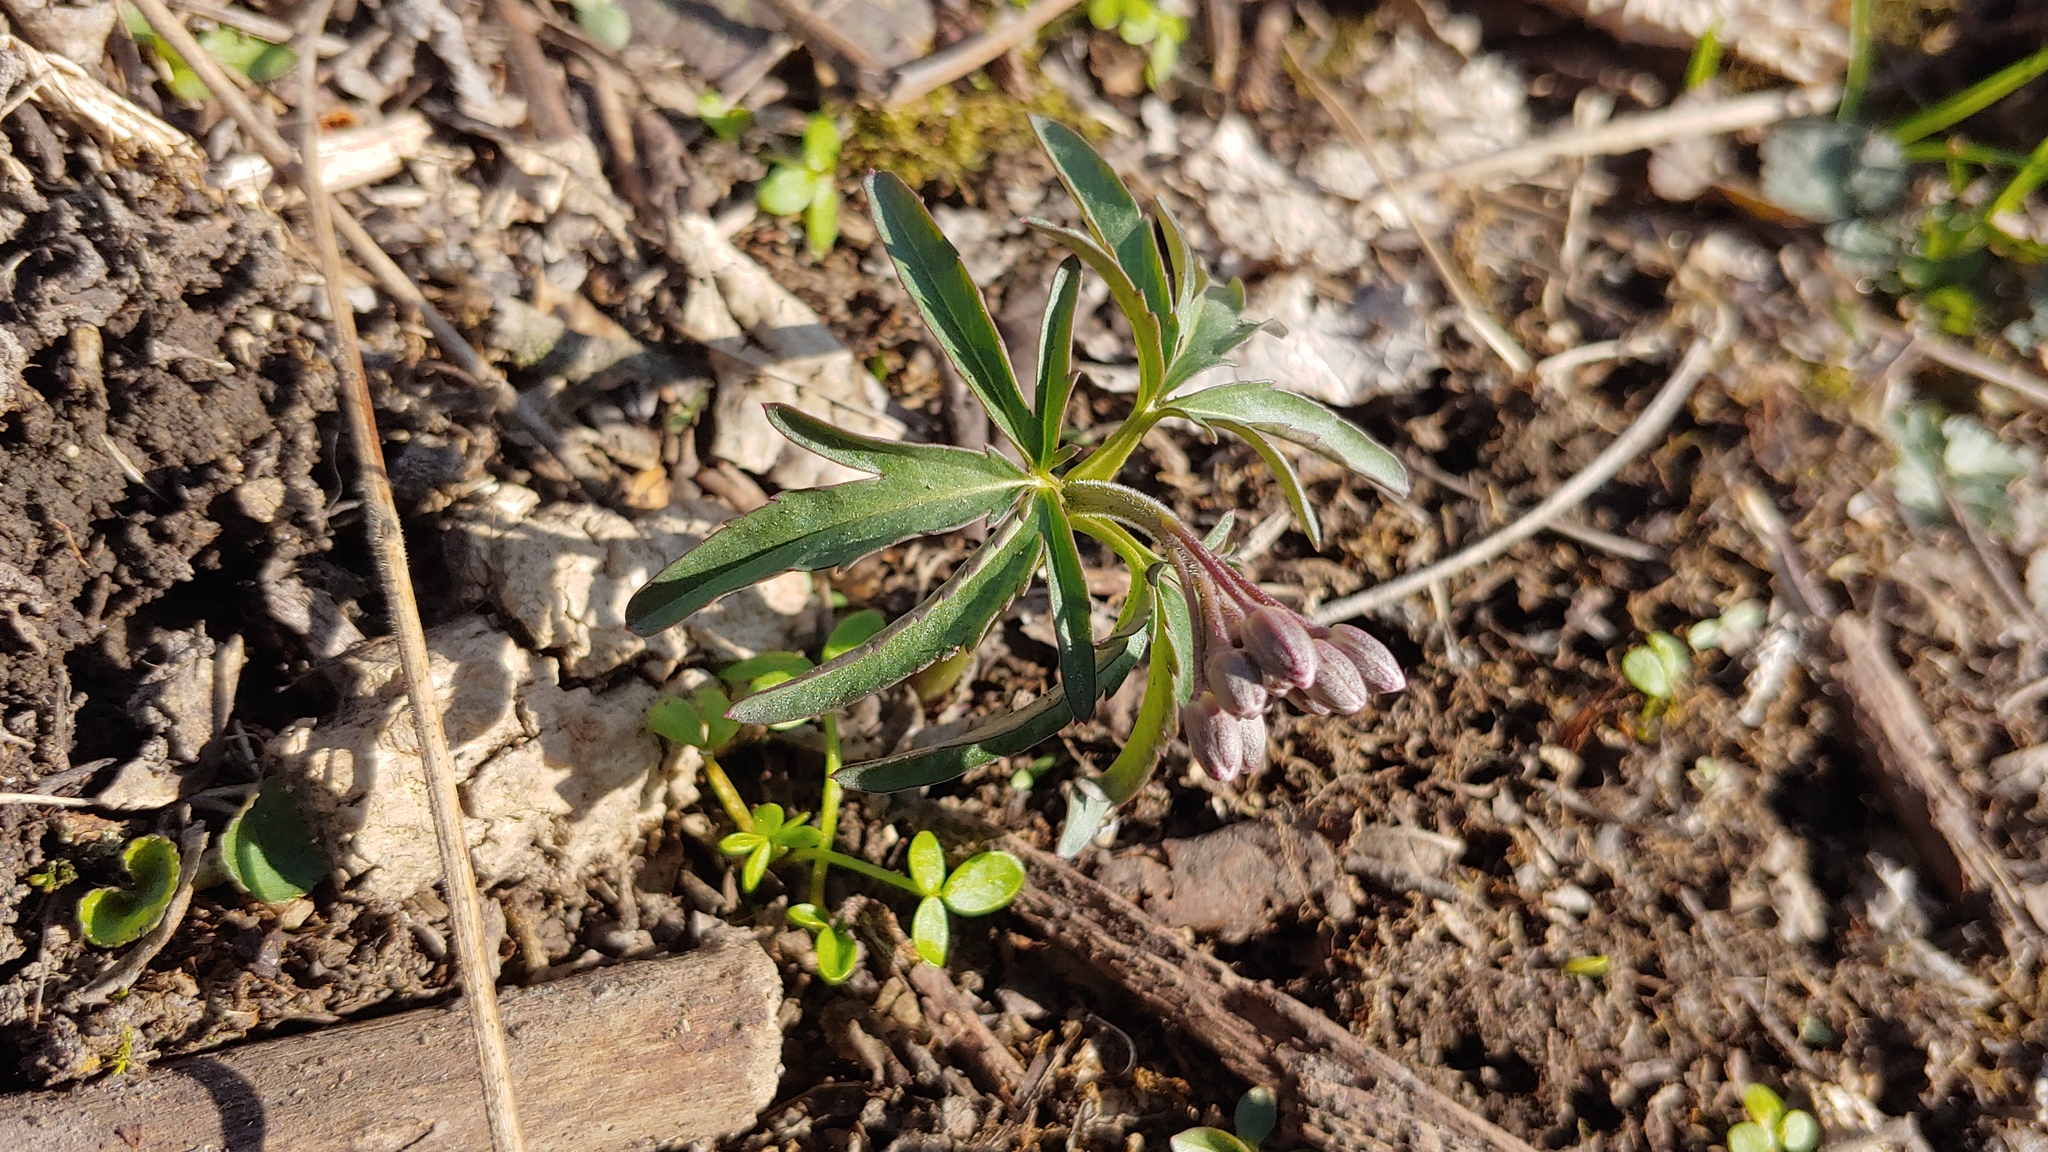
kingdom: Plantae
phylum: Tracheophyta
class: Magnoliopsida
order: Brassicales
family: Brassicaceae
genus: Cardamine
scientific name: Cardamine concatenata
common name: Cut-leaf toothcup
